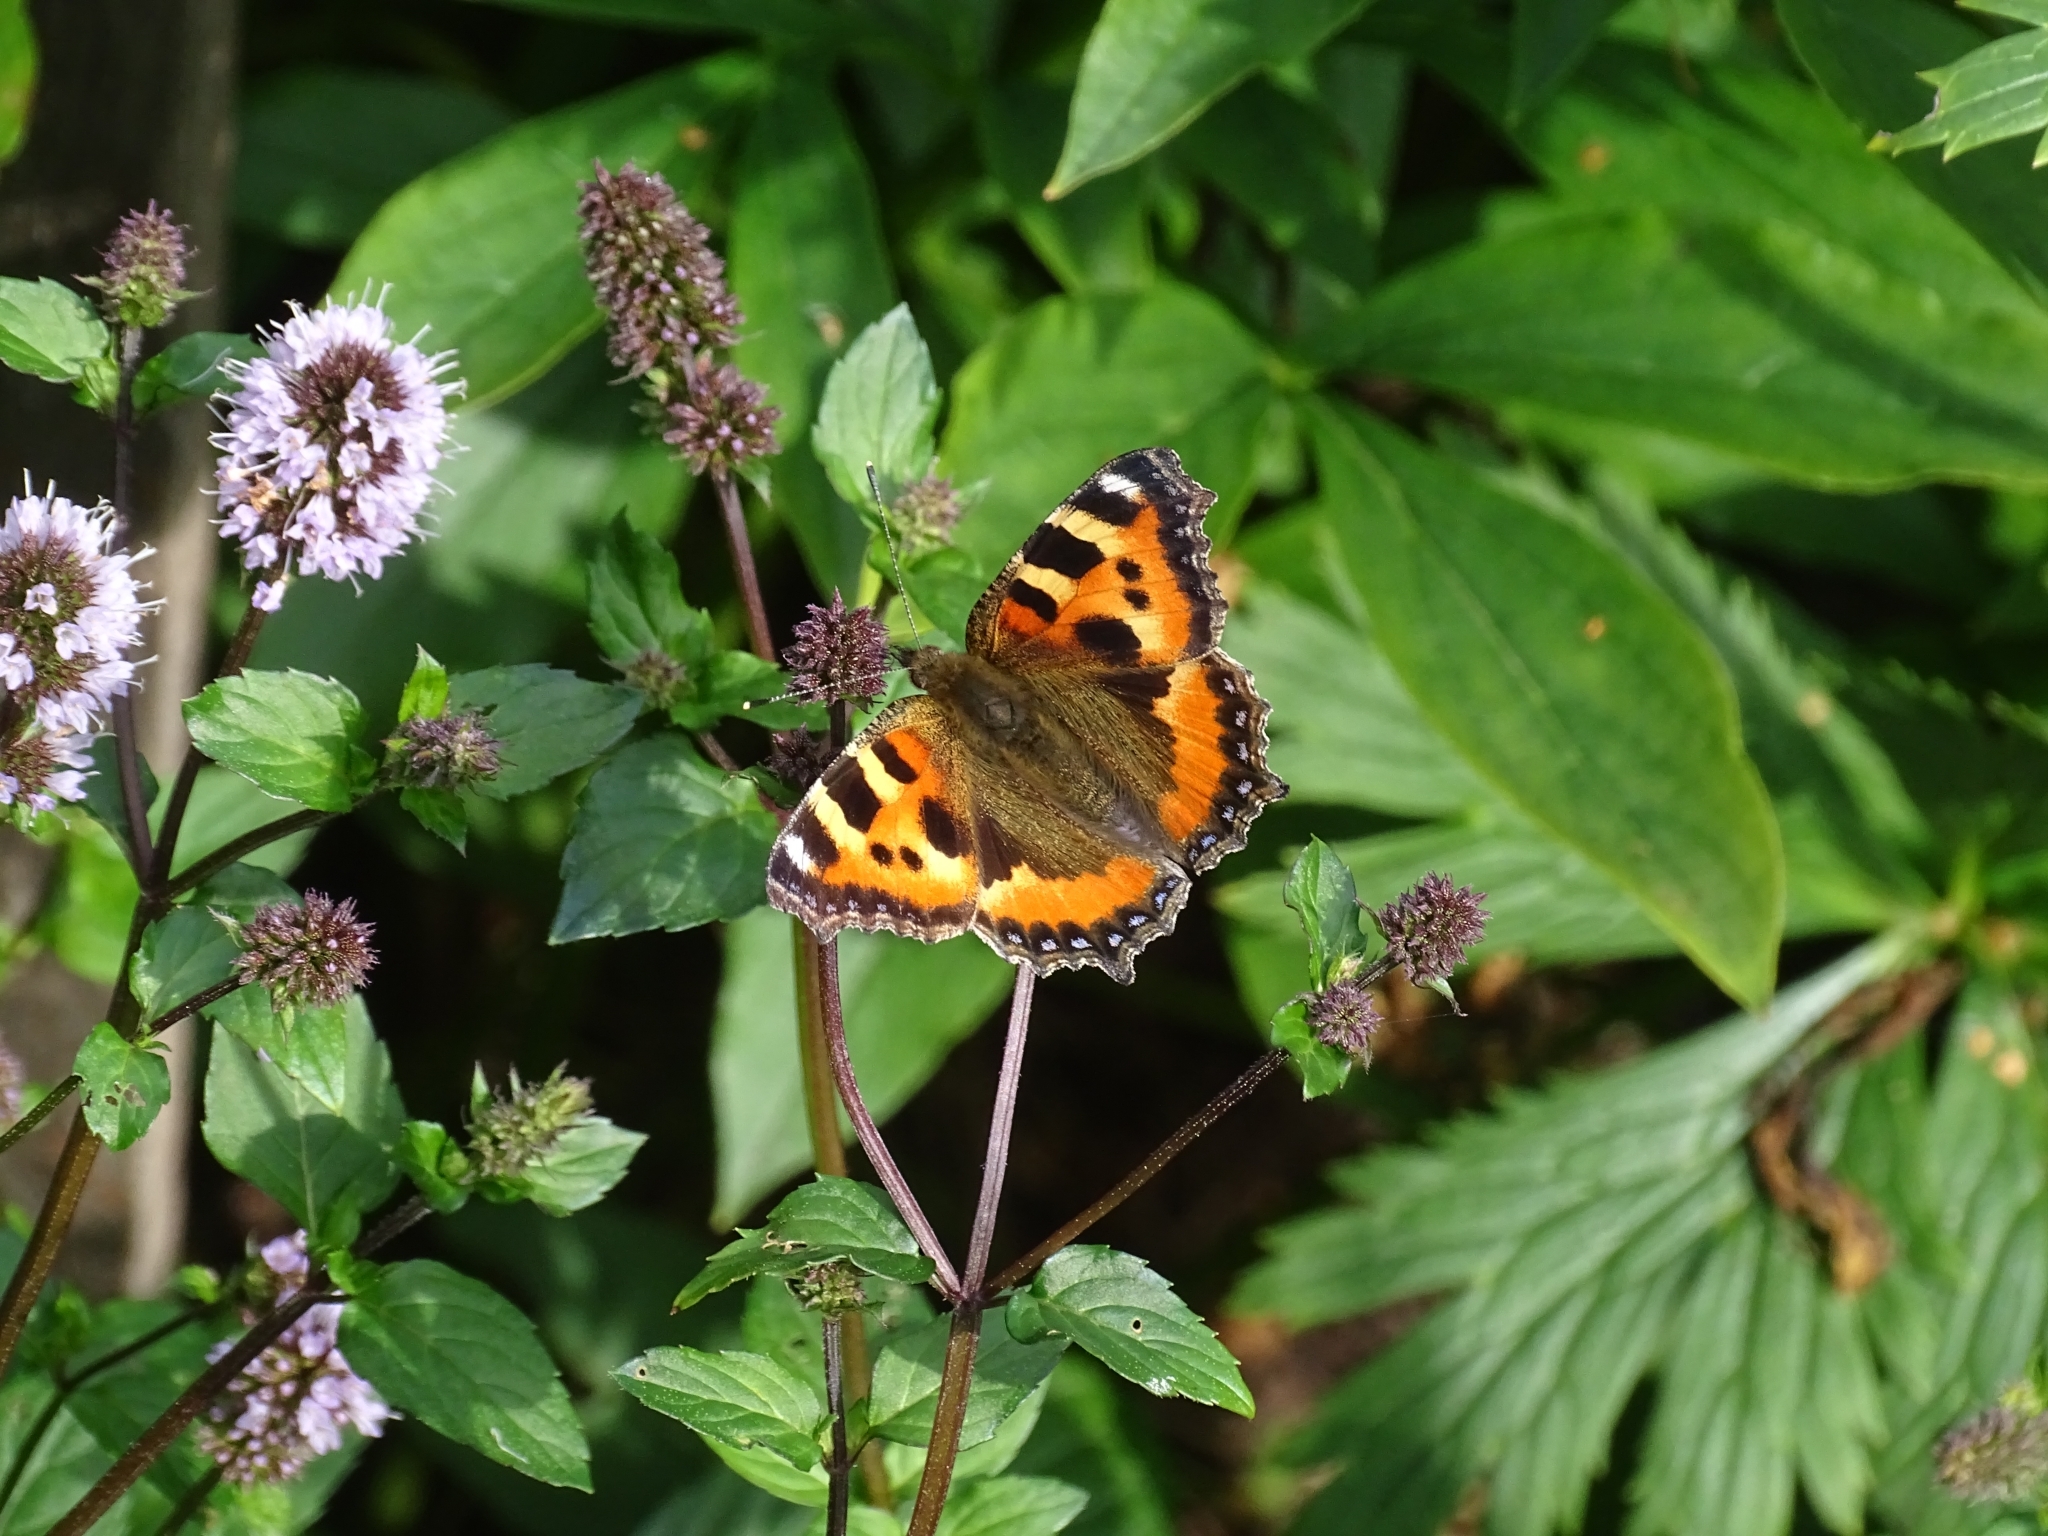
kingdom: Animalia
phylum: Arthropoda
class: Insecta
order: Lepidoptera
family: Nymphalidae
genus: Aglais
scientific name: Aglais urticae
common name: Small tortoiseshell
